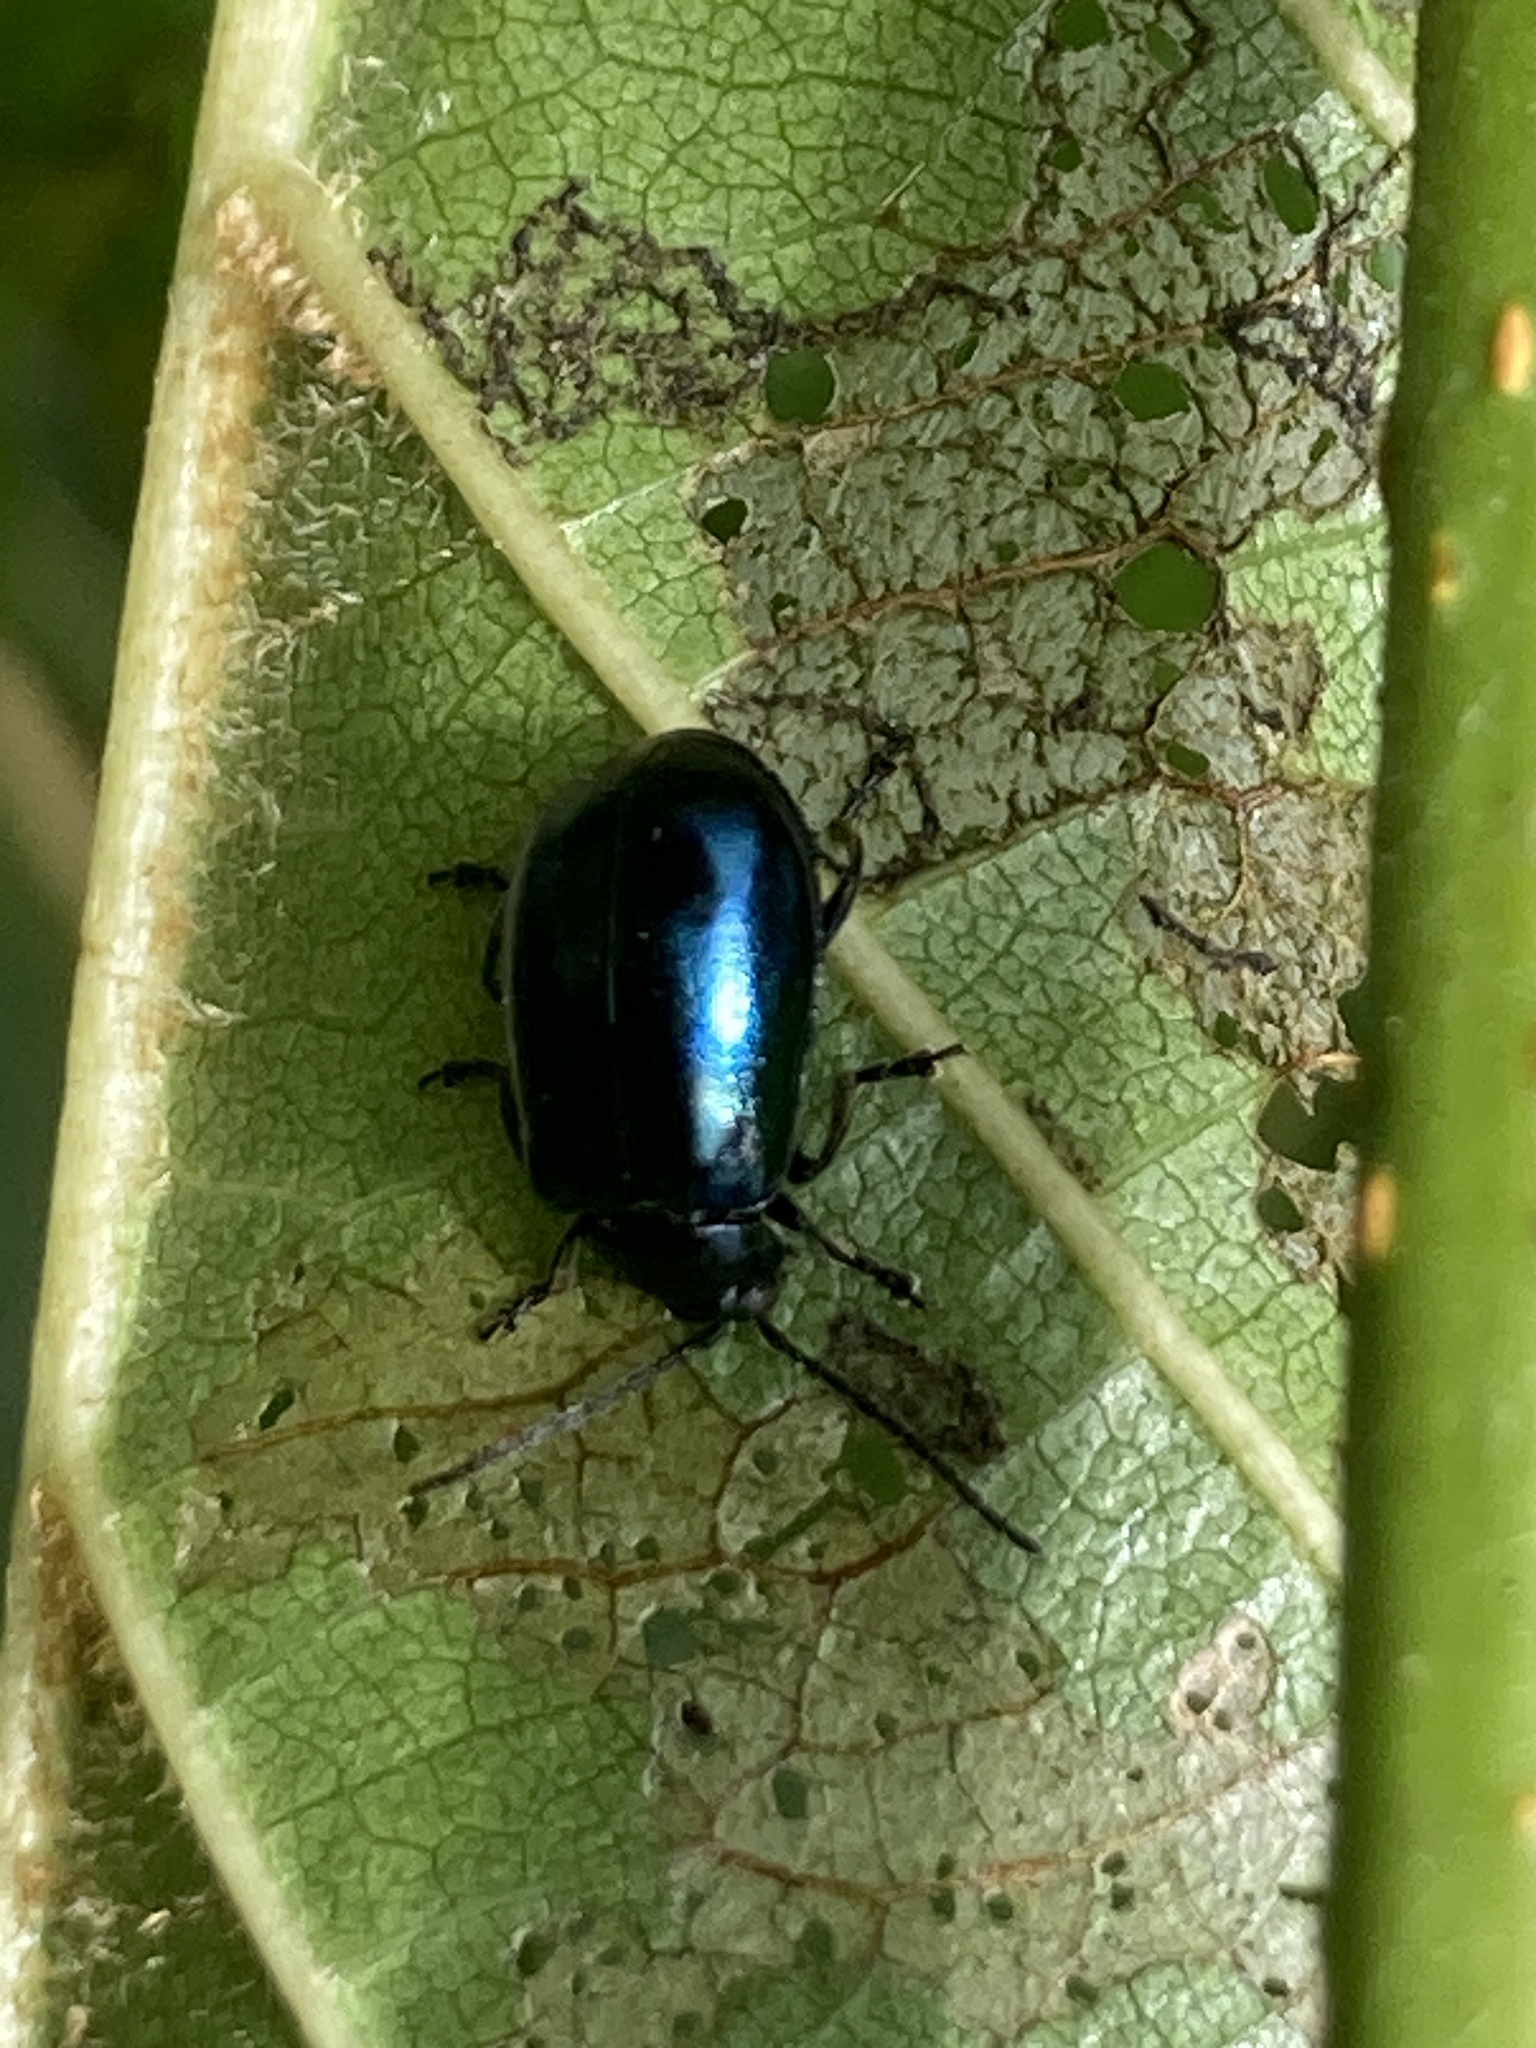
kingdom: Animalia
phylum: Arthropoda
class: Insecta
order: Coleoptera
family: Chrysomelidae
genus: Agelastica
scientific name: Agelastica alni
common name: Alder leaf beetle
